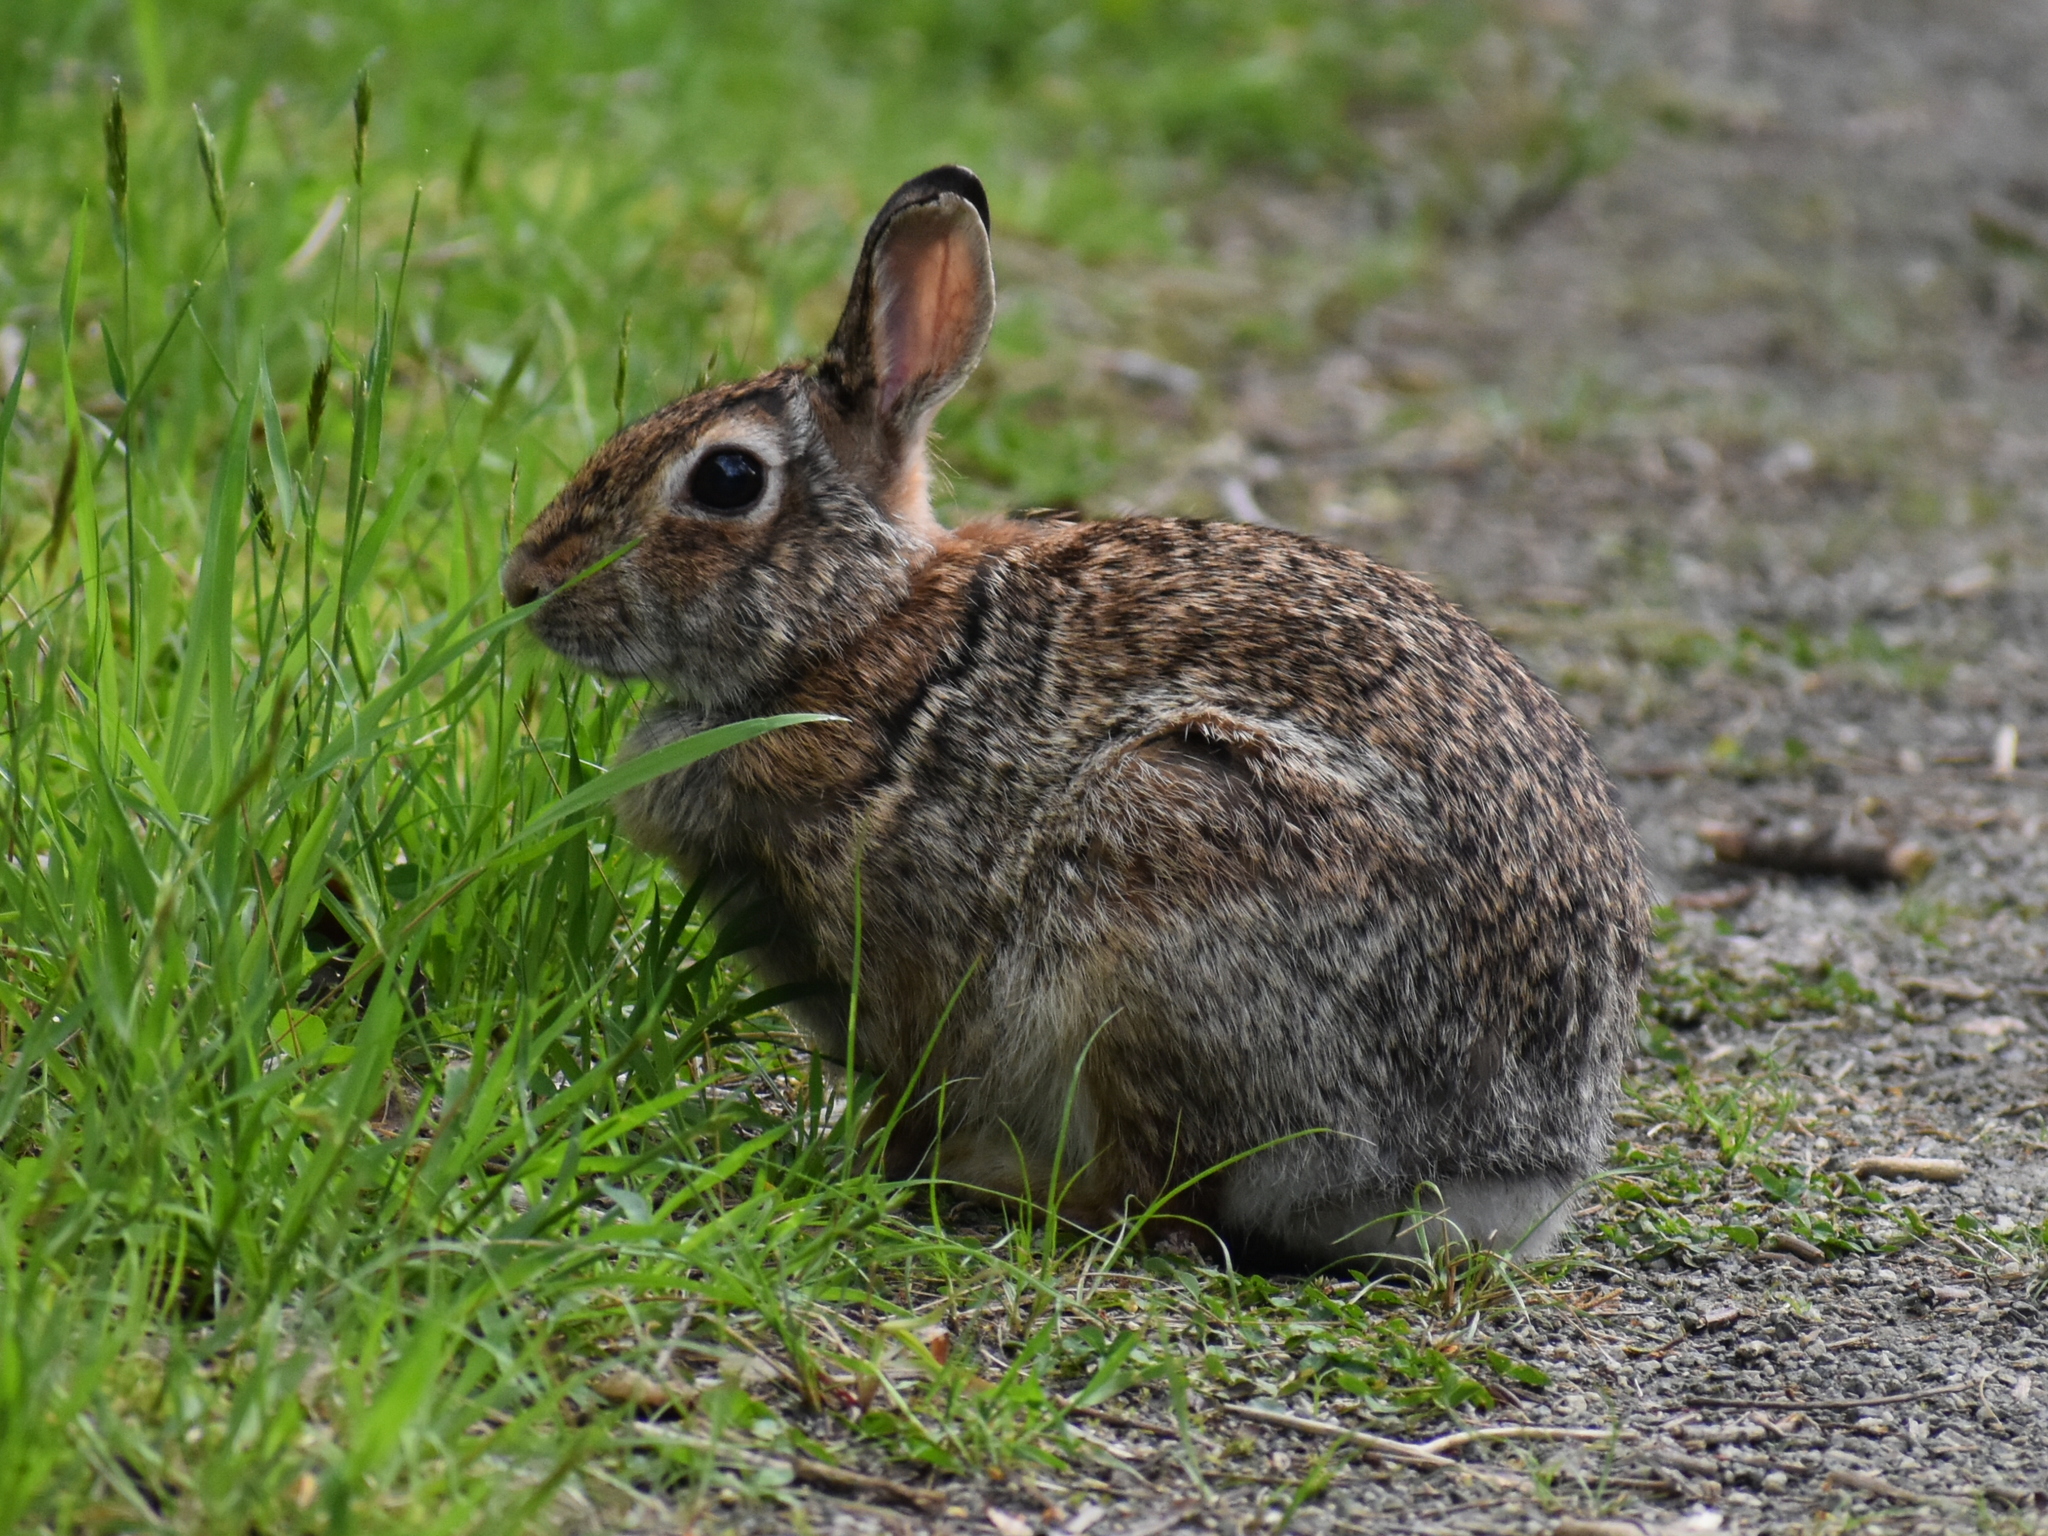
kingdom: Animalia
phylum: Chordata
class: Mammalia
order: Lagomorpha
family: Leporidae
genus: Sylvilagus
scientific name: Sylvilagus floridanus
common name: Eastern cottontail
